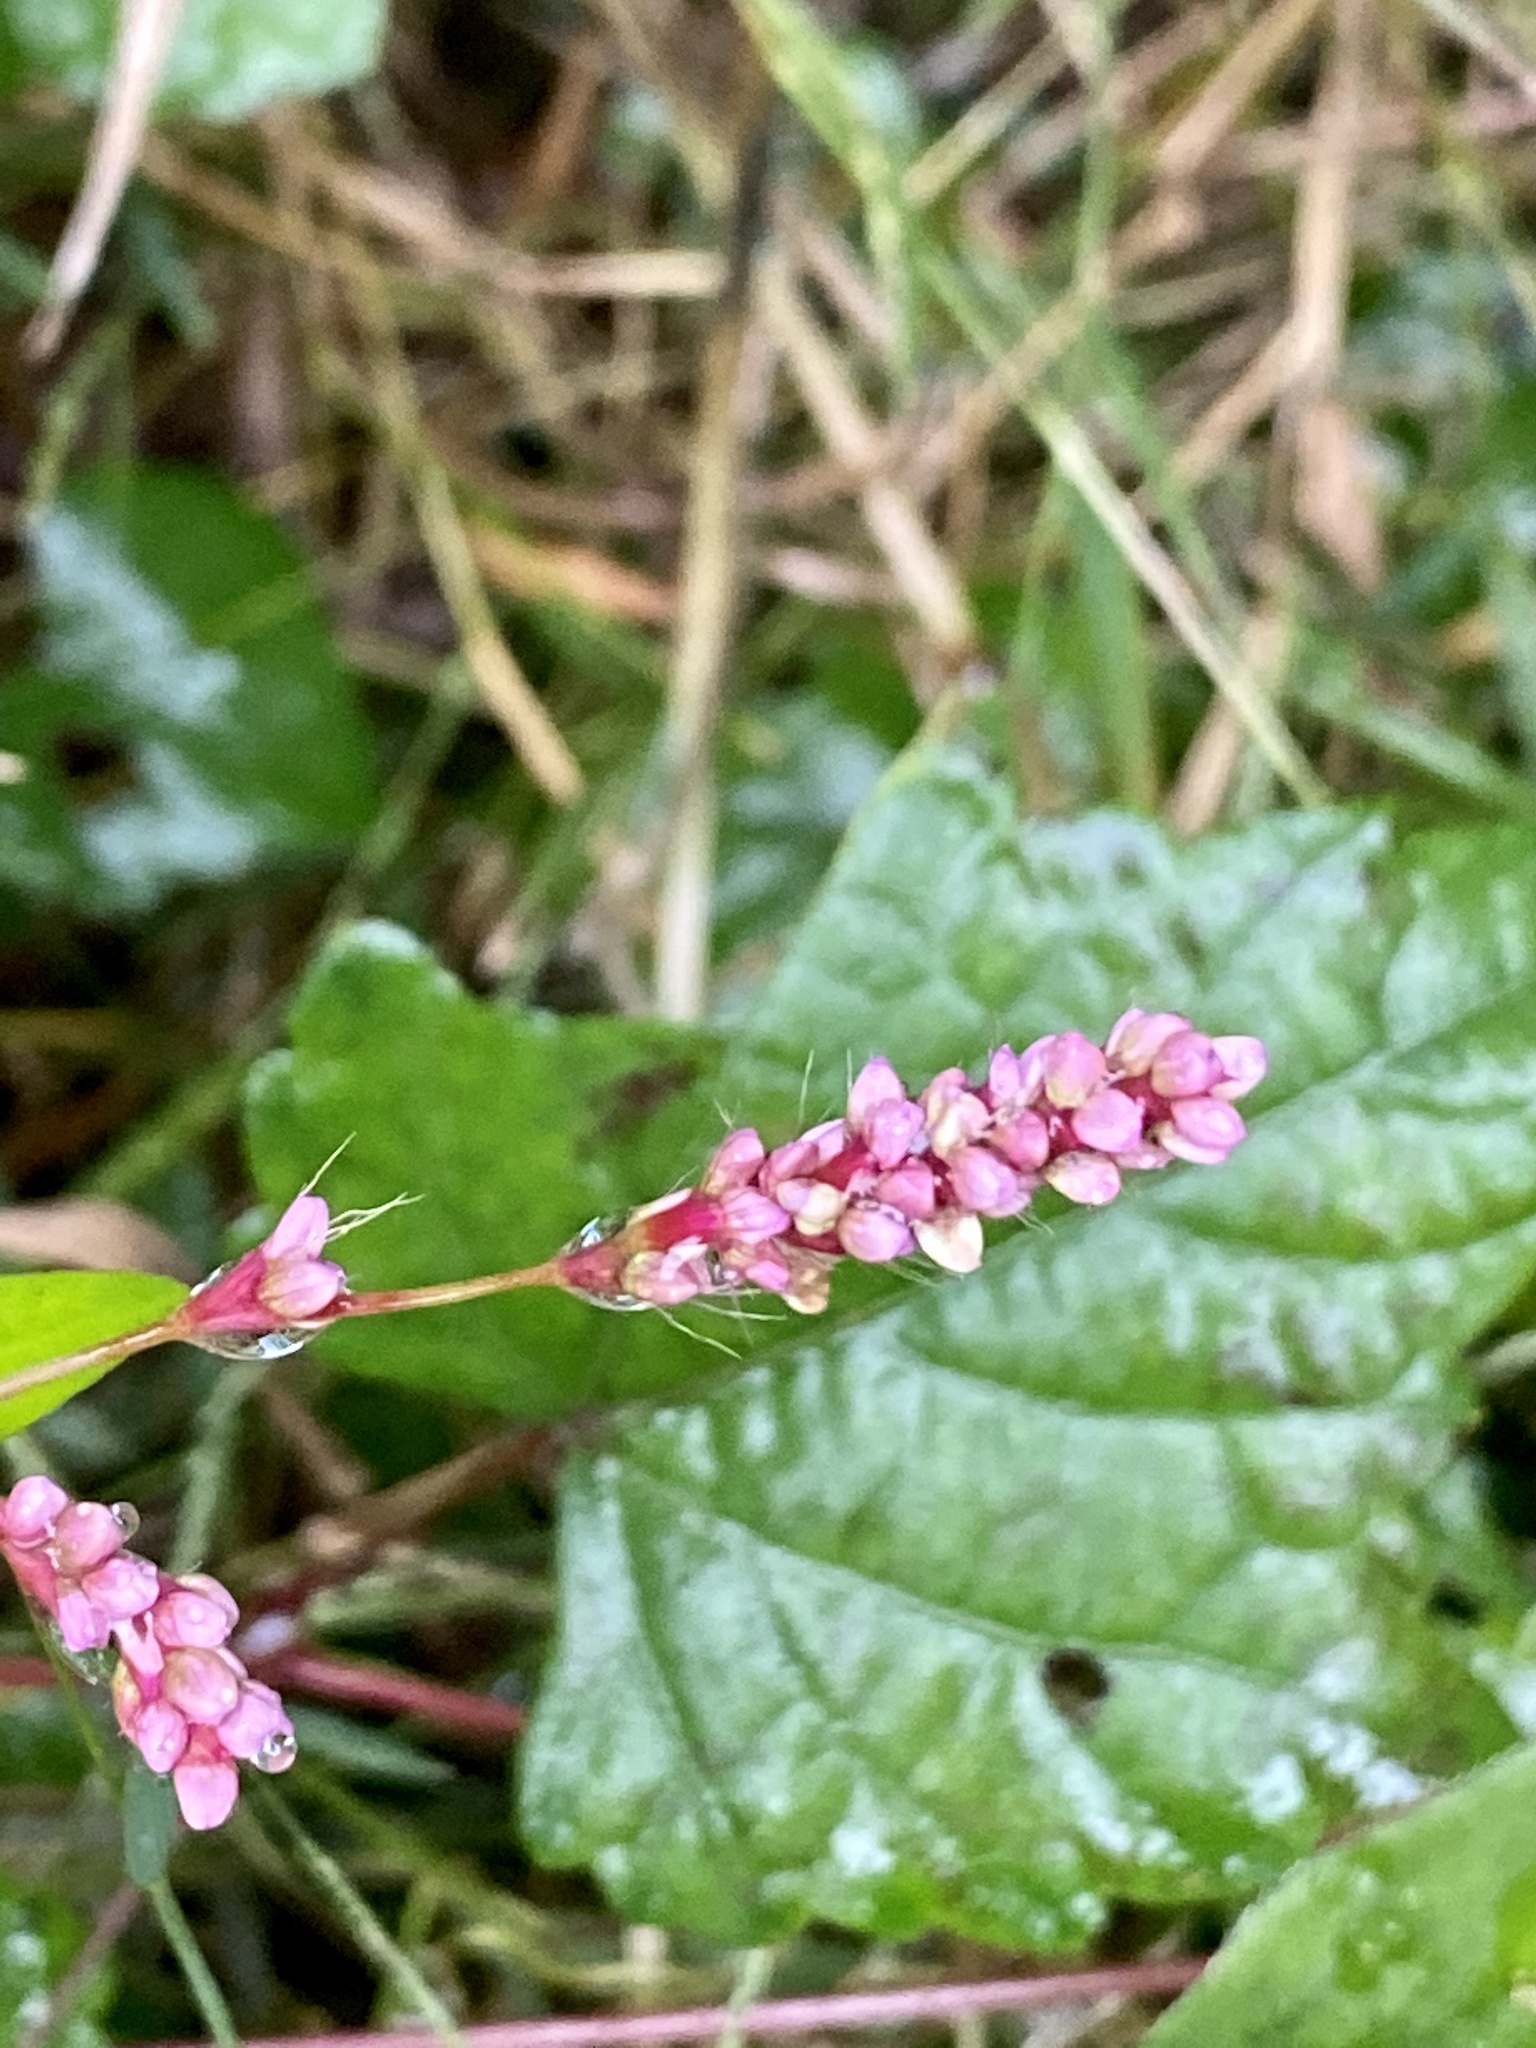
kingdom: Plantae
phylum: Tracheophyta
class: Magnoliopsida
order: Caryophyllales
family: Polygonaceae
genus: Persicaria
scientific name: Persicaria longiseta
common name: Bristly lady's-thumb
